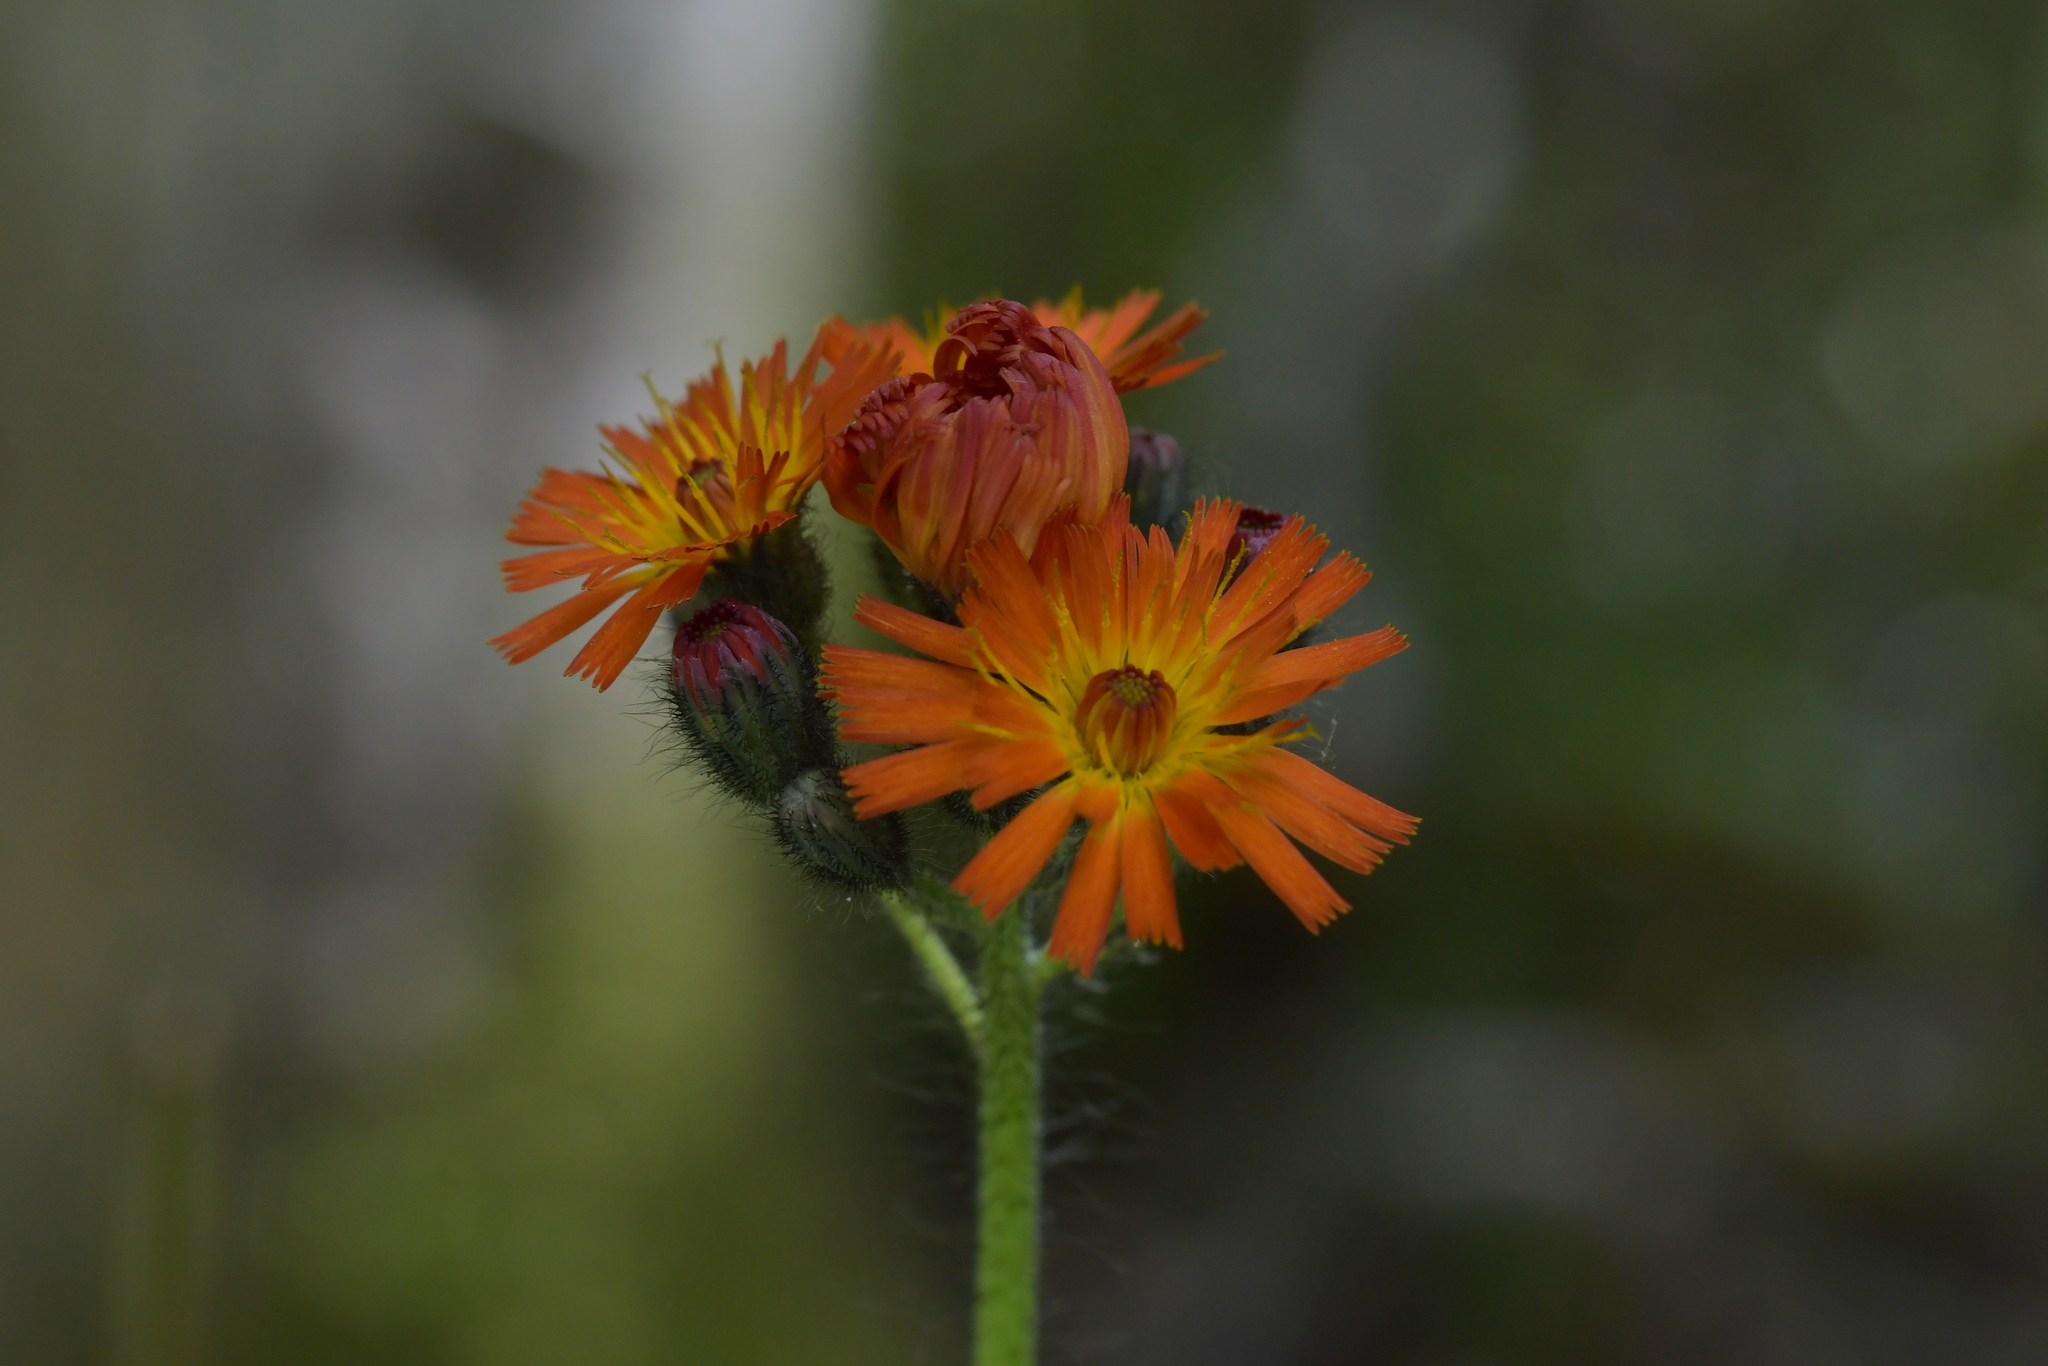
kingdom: Plantae
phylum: Tracheophyta
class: Magnoliopsida
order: Asterales
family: Asteraceae
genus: Pilosella
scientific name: Pilosella aurantiaca
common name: Fox-and-cubs
